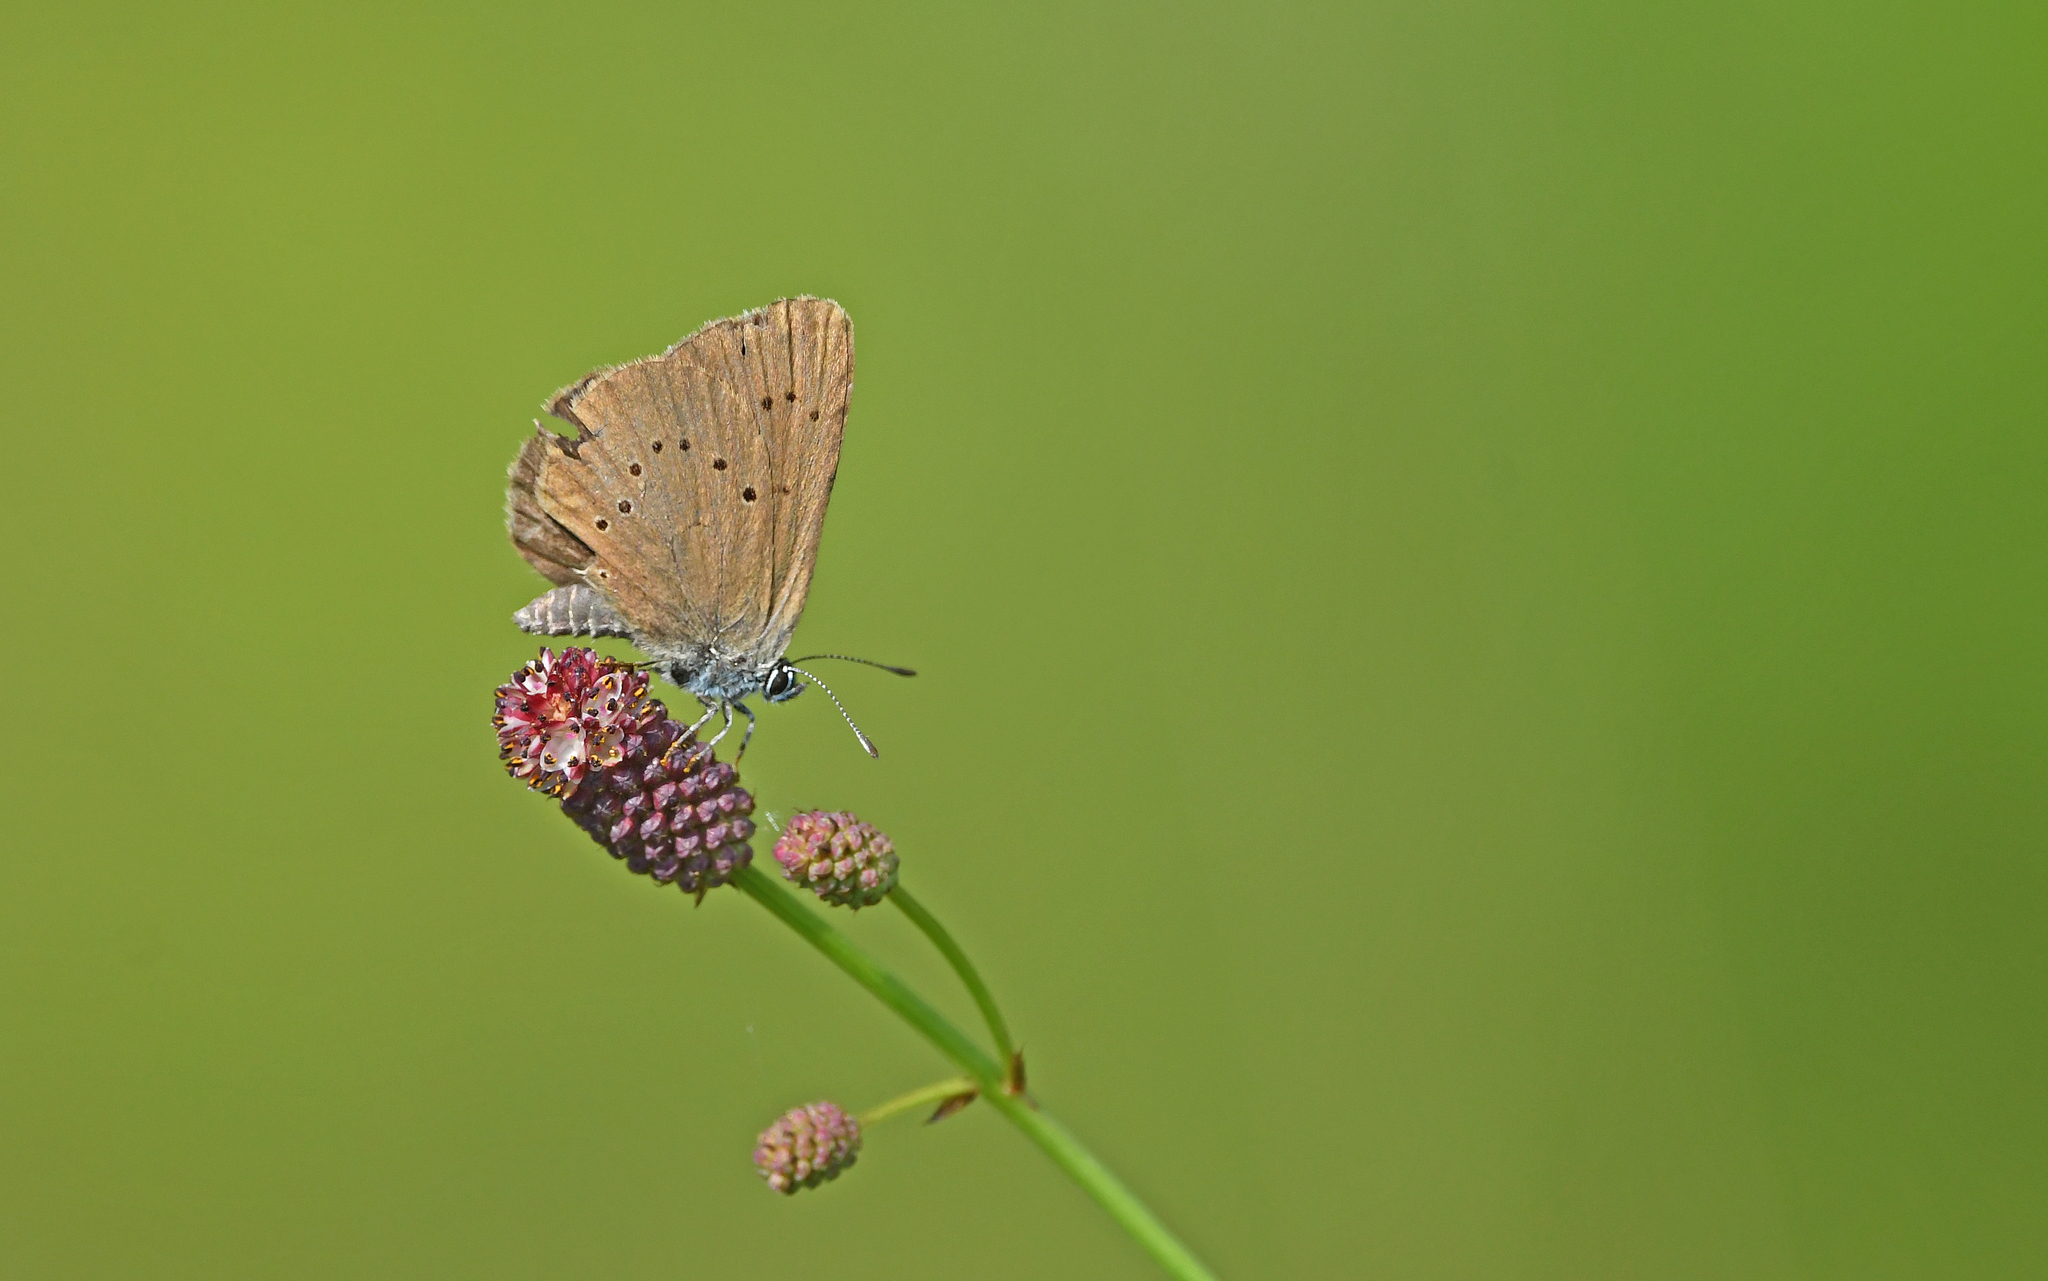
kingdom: Animalia
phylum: Arthropoda
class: Insecta
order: Lepidoptera
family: Lycaenidae
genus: Maculinea
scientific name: Maculinea nausithous
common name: Dusky large blue
